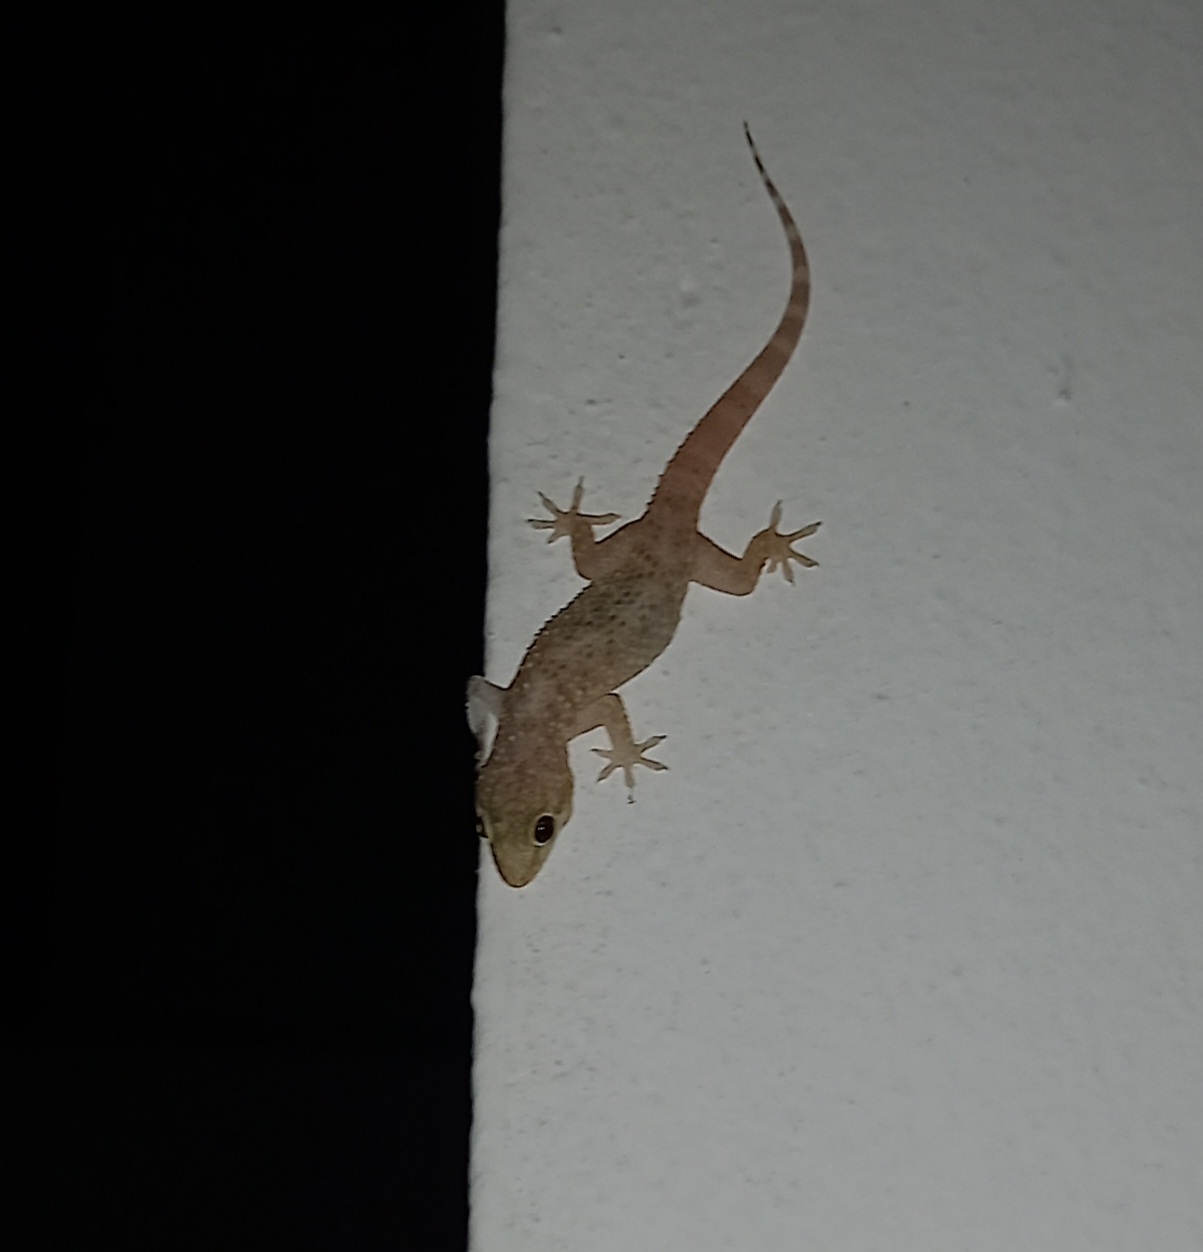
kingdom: Animalia
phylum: Chordata
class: Squamata
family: Gekkonidae
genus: Hemidactylus
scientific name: Hemidactylus turcicus
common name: Turkish gecko
